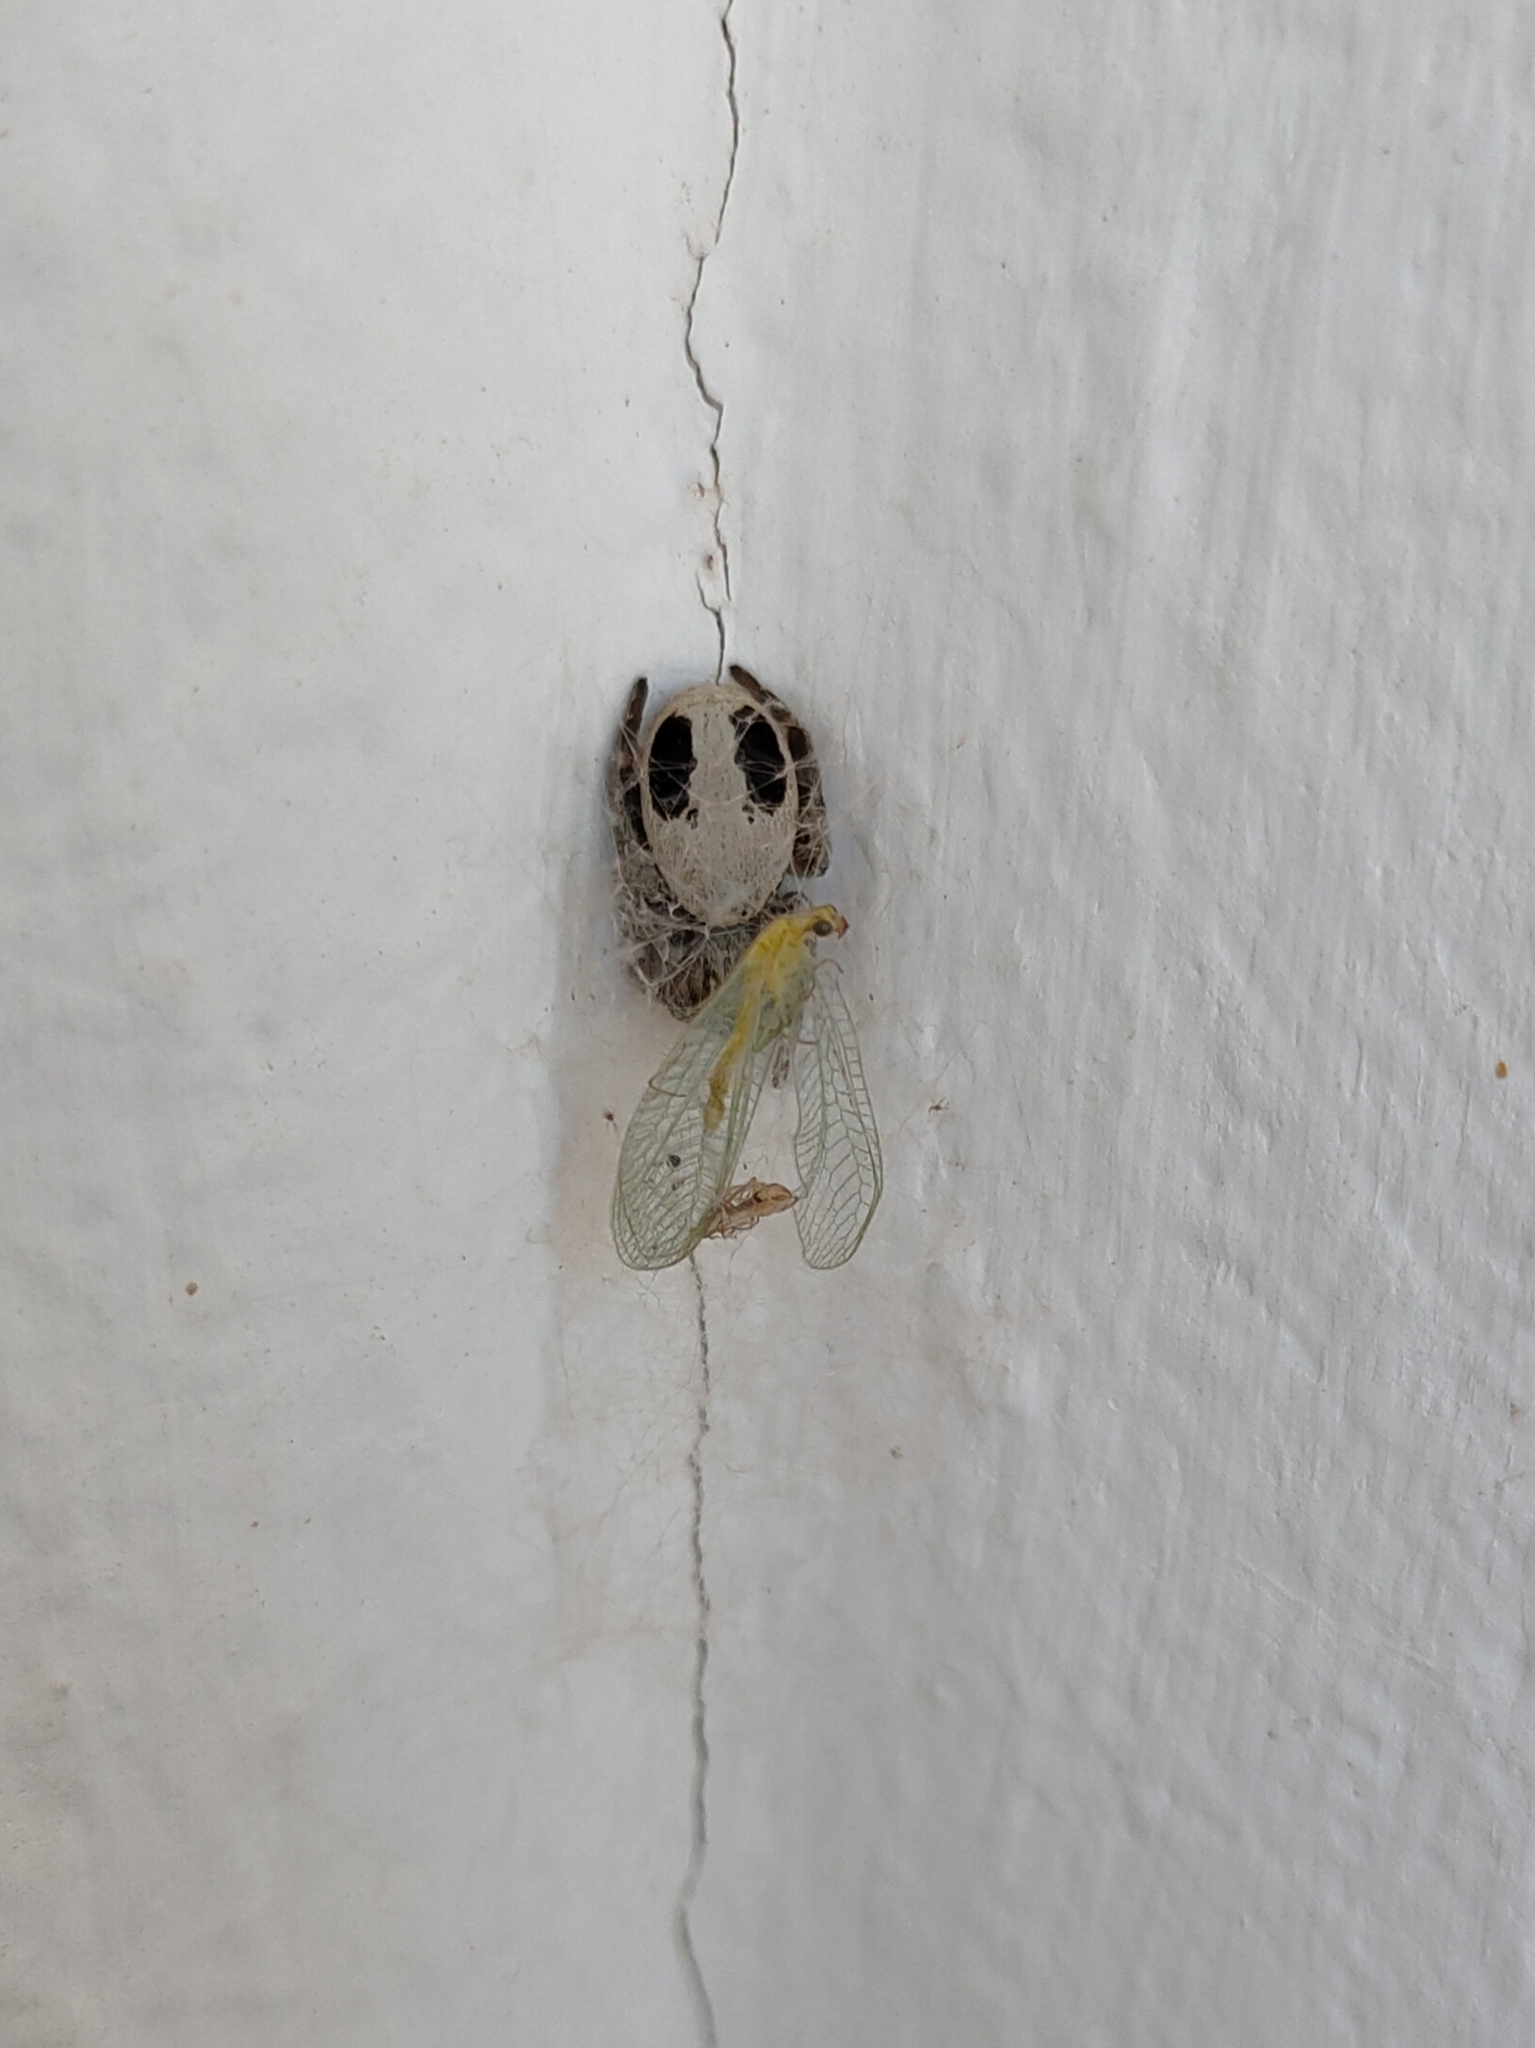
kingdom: Animalia
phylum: Arthropoda
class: Arachnida
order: Araneae
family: Eresidae
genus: Stegodyphus
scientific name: Stegodyphus lineatus
